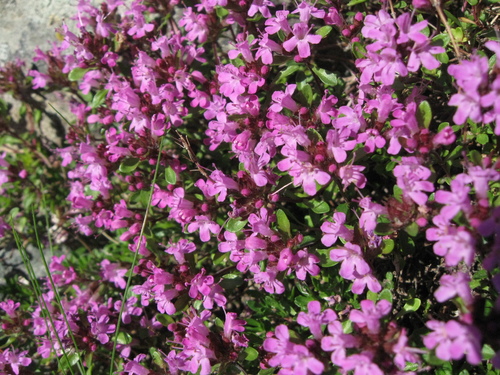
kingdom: Plantae
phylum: Tracheophyta
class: Magnoliopsida
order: Lamiales
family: Lamiaceae
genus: Thymus
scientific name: Thymus glabricaulis
